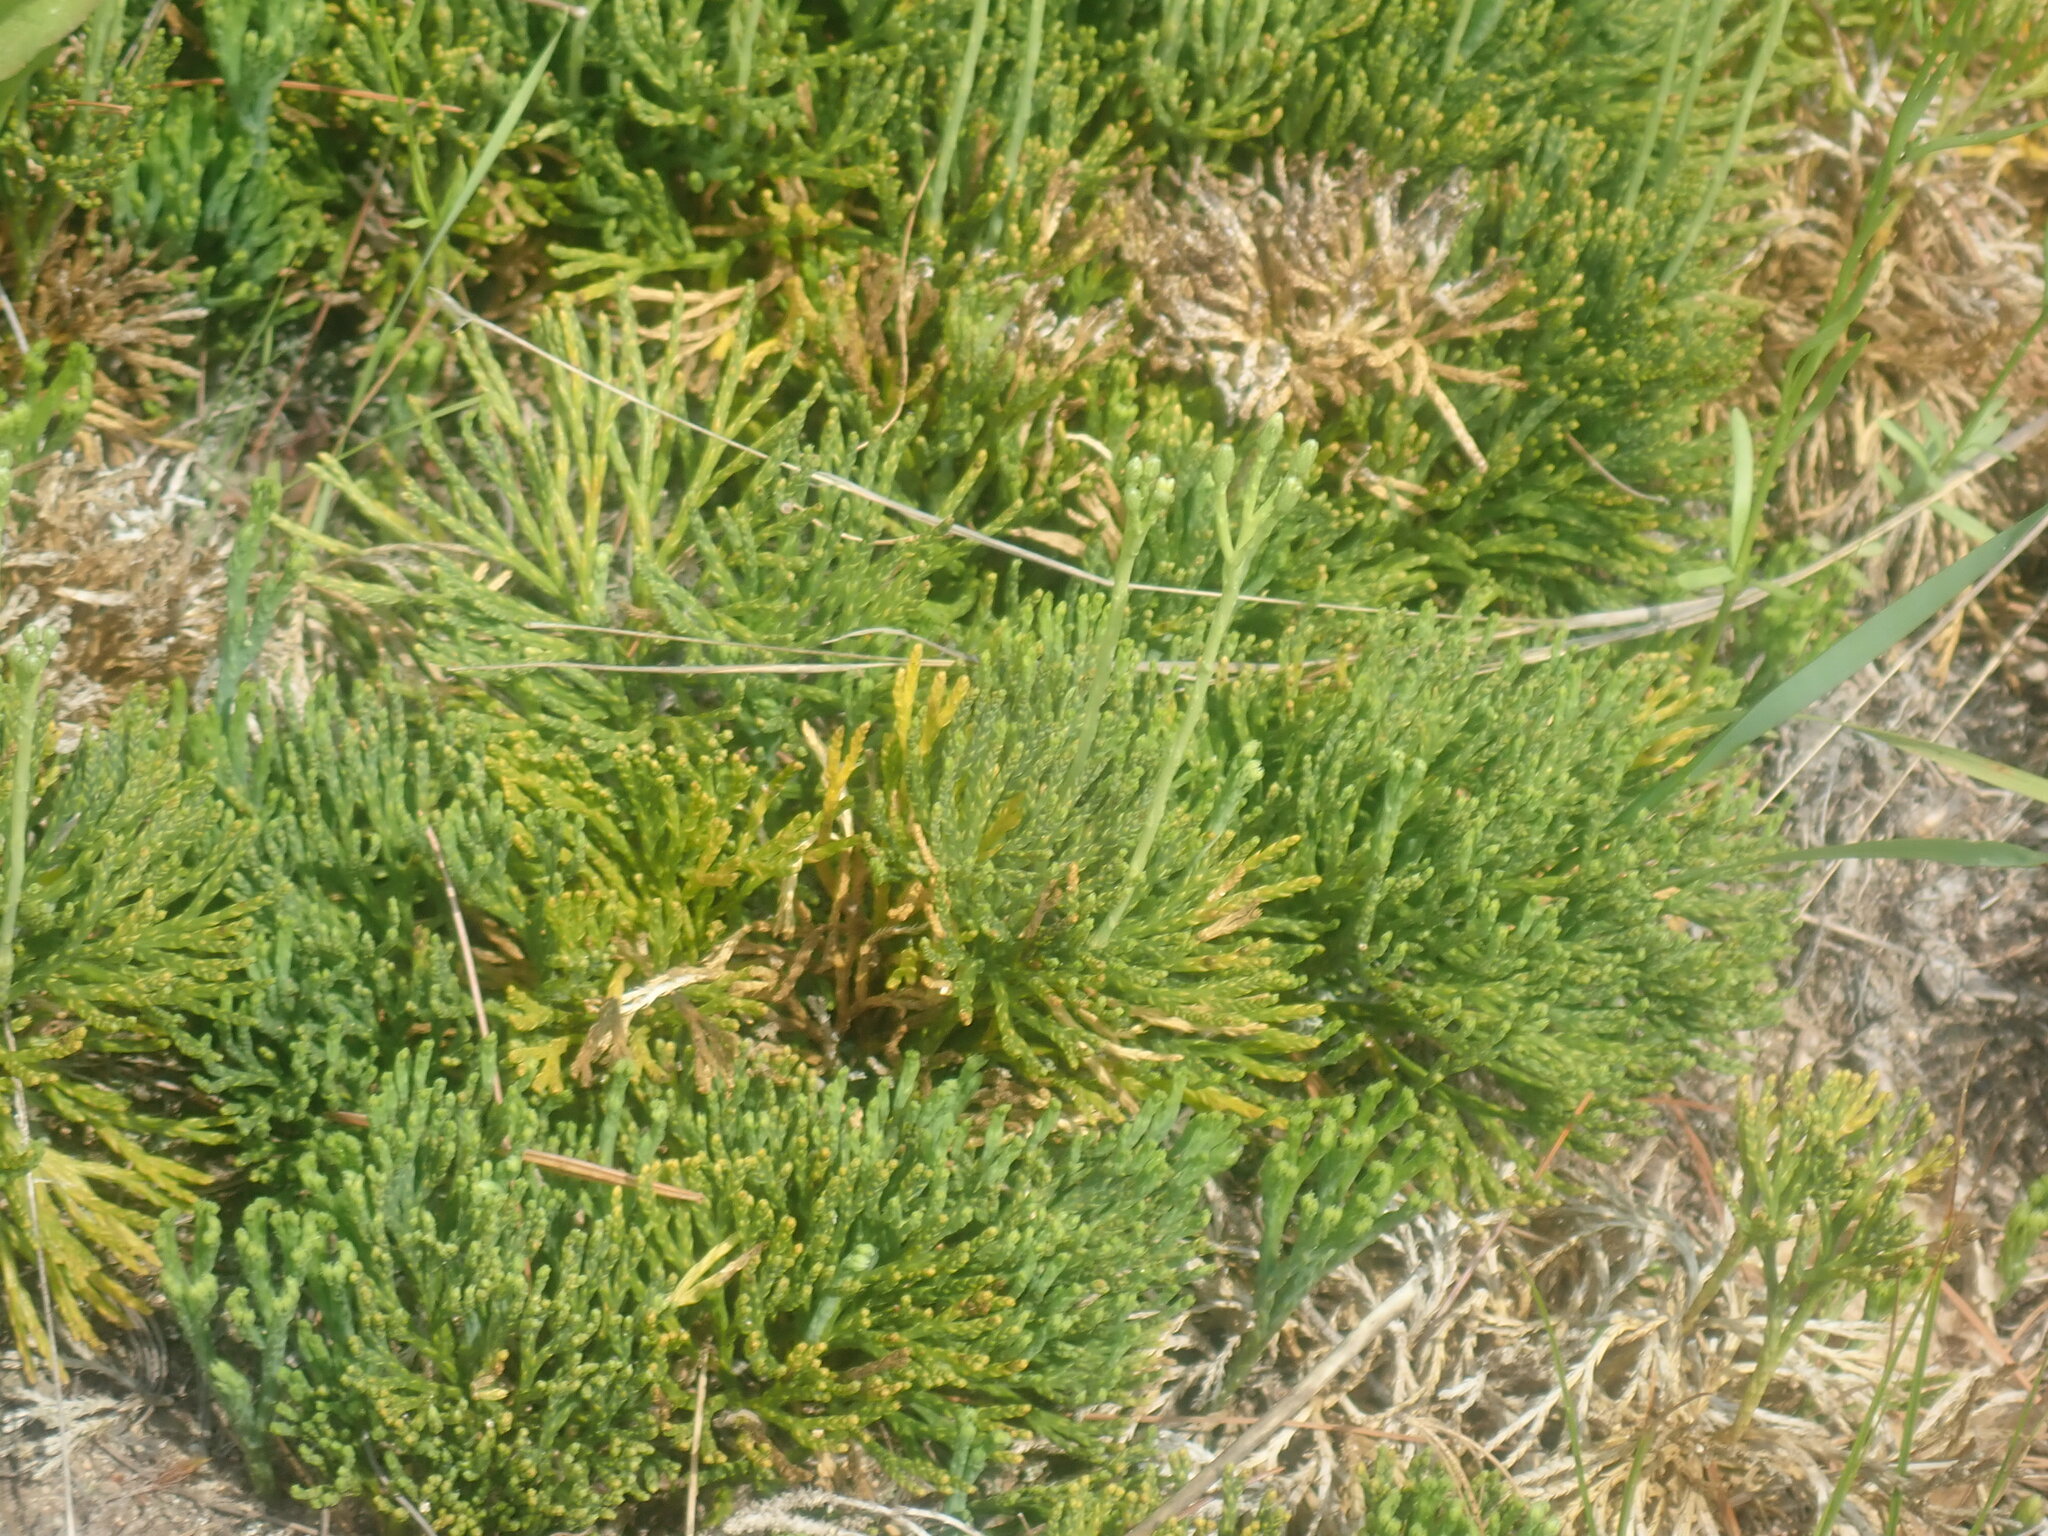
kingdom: Plantae
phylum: Tracheophyta
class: Lycopodiopsida
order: Lycopodiales
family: Lycopodiaceae
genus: Diphasiastrum
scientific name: Diphasiastrum tristachyum
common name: Blue ground-cedar
